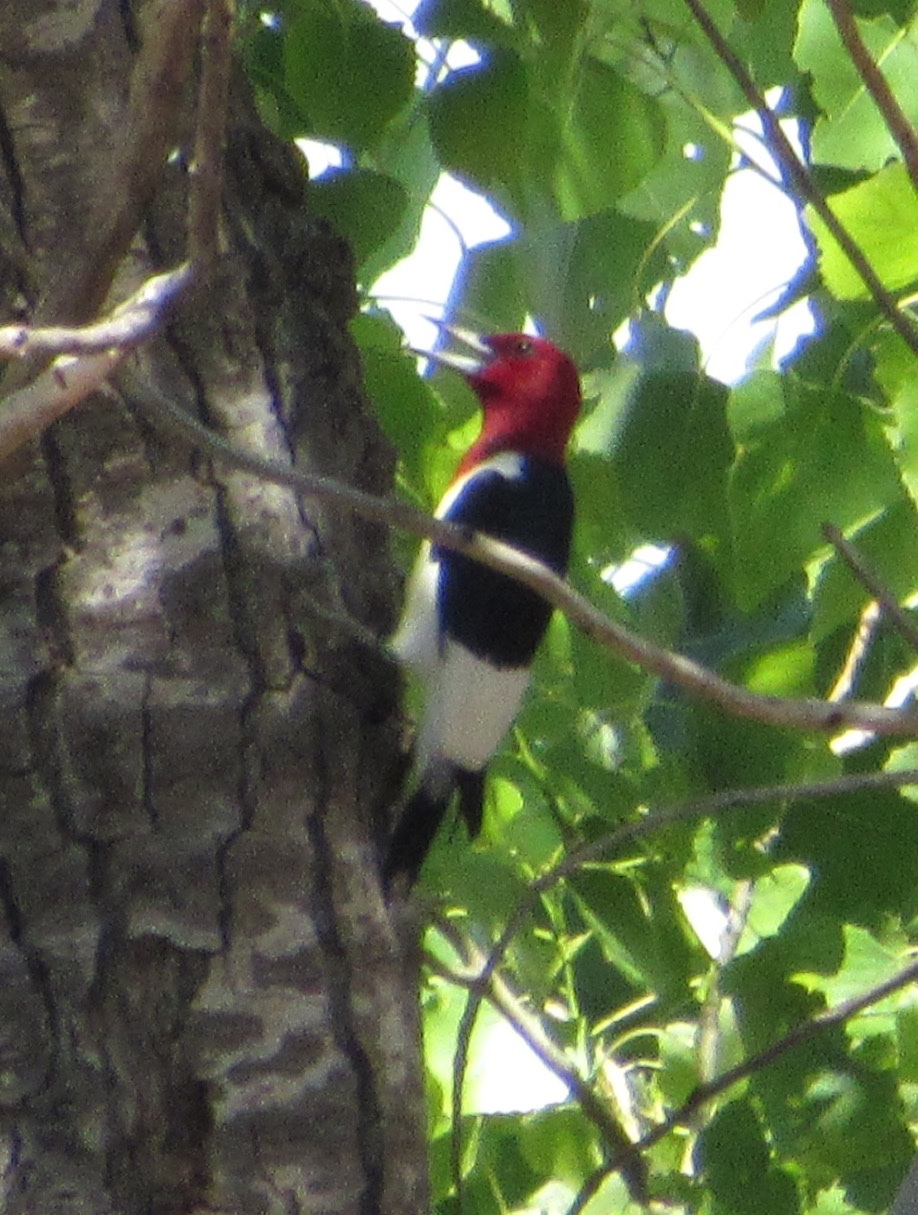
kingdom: Animalia
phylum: Chordata
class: Aves
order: Piciformes
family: Picidae
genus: Melanerpes
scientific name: Melanerpes erythrocephalus
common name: Red-headed woodpecker
